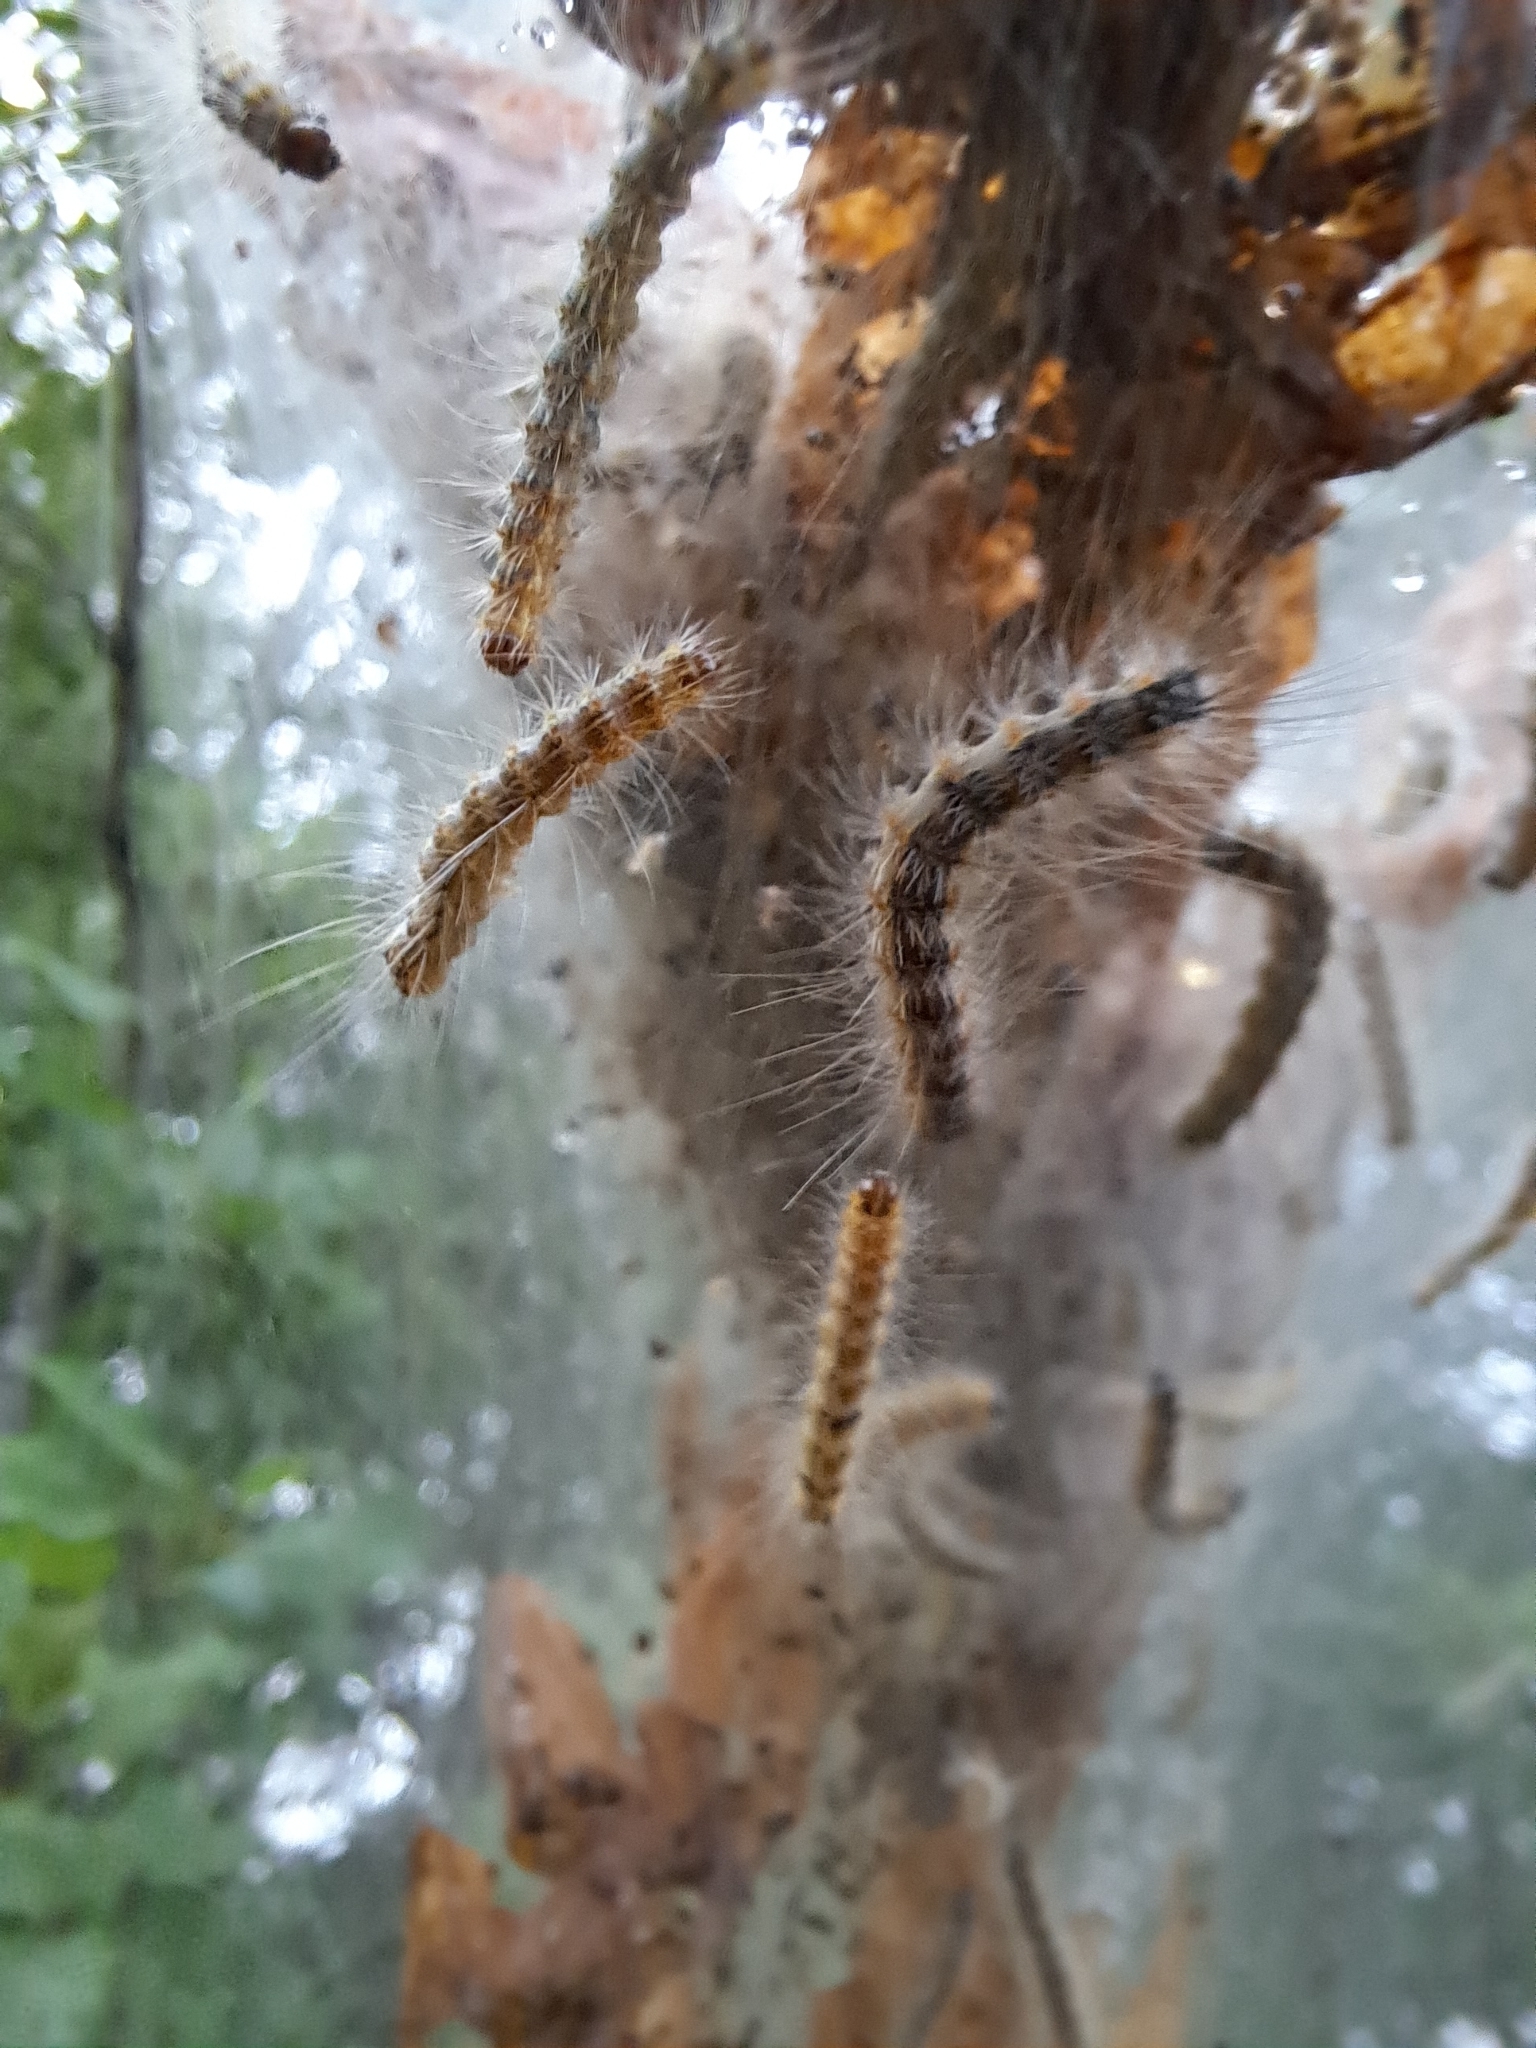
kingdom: Animalia
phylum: Arthropoda
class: Insecta
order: Lepidoptera
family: Erebidae
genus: Hyphantria
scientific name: Hyphantria cunea
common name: American white moth
